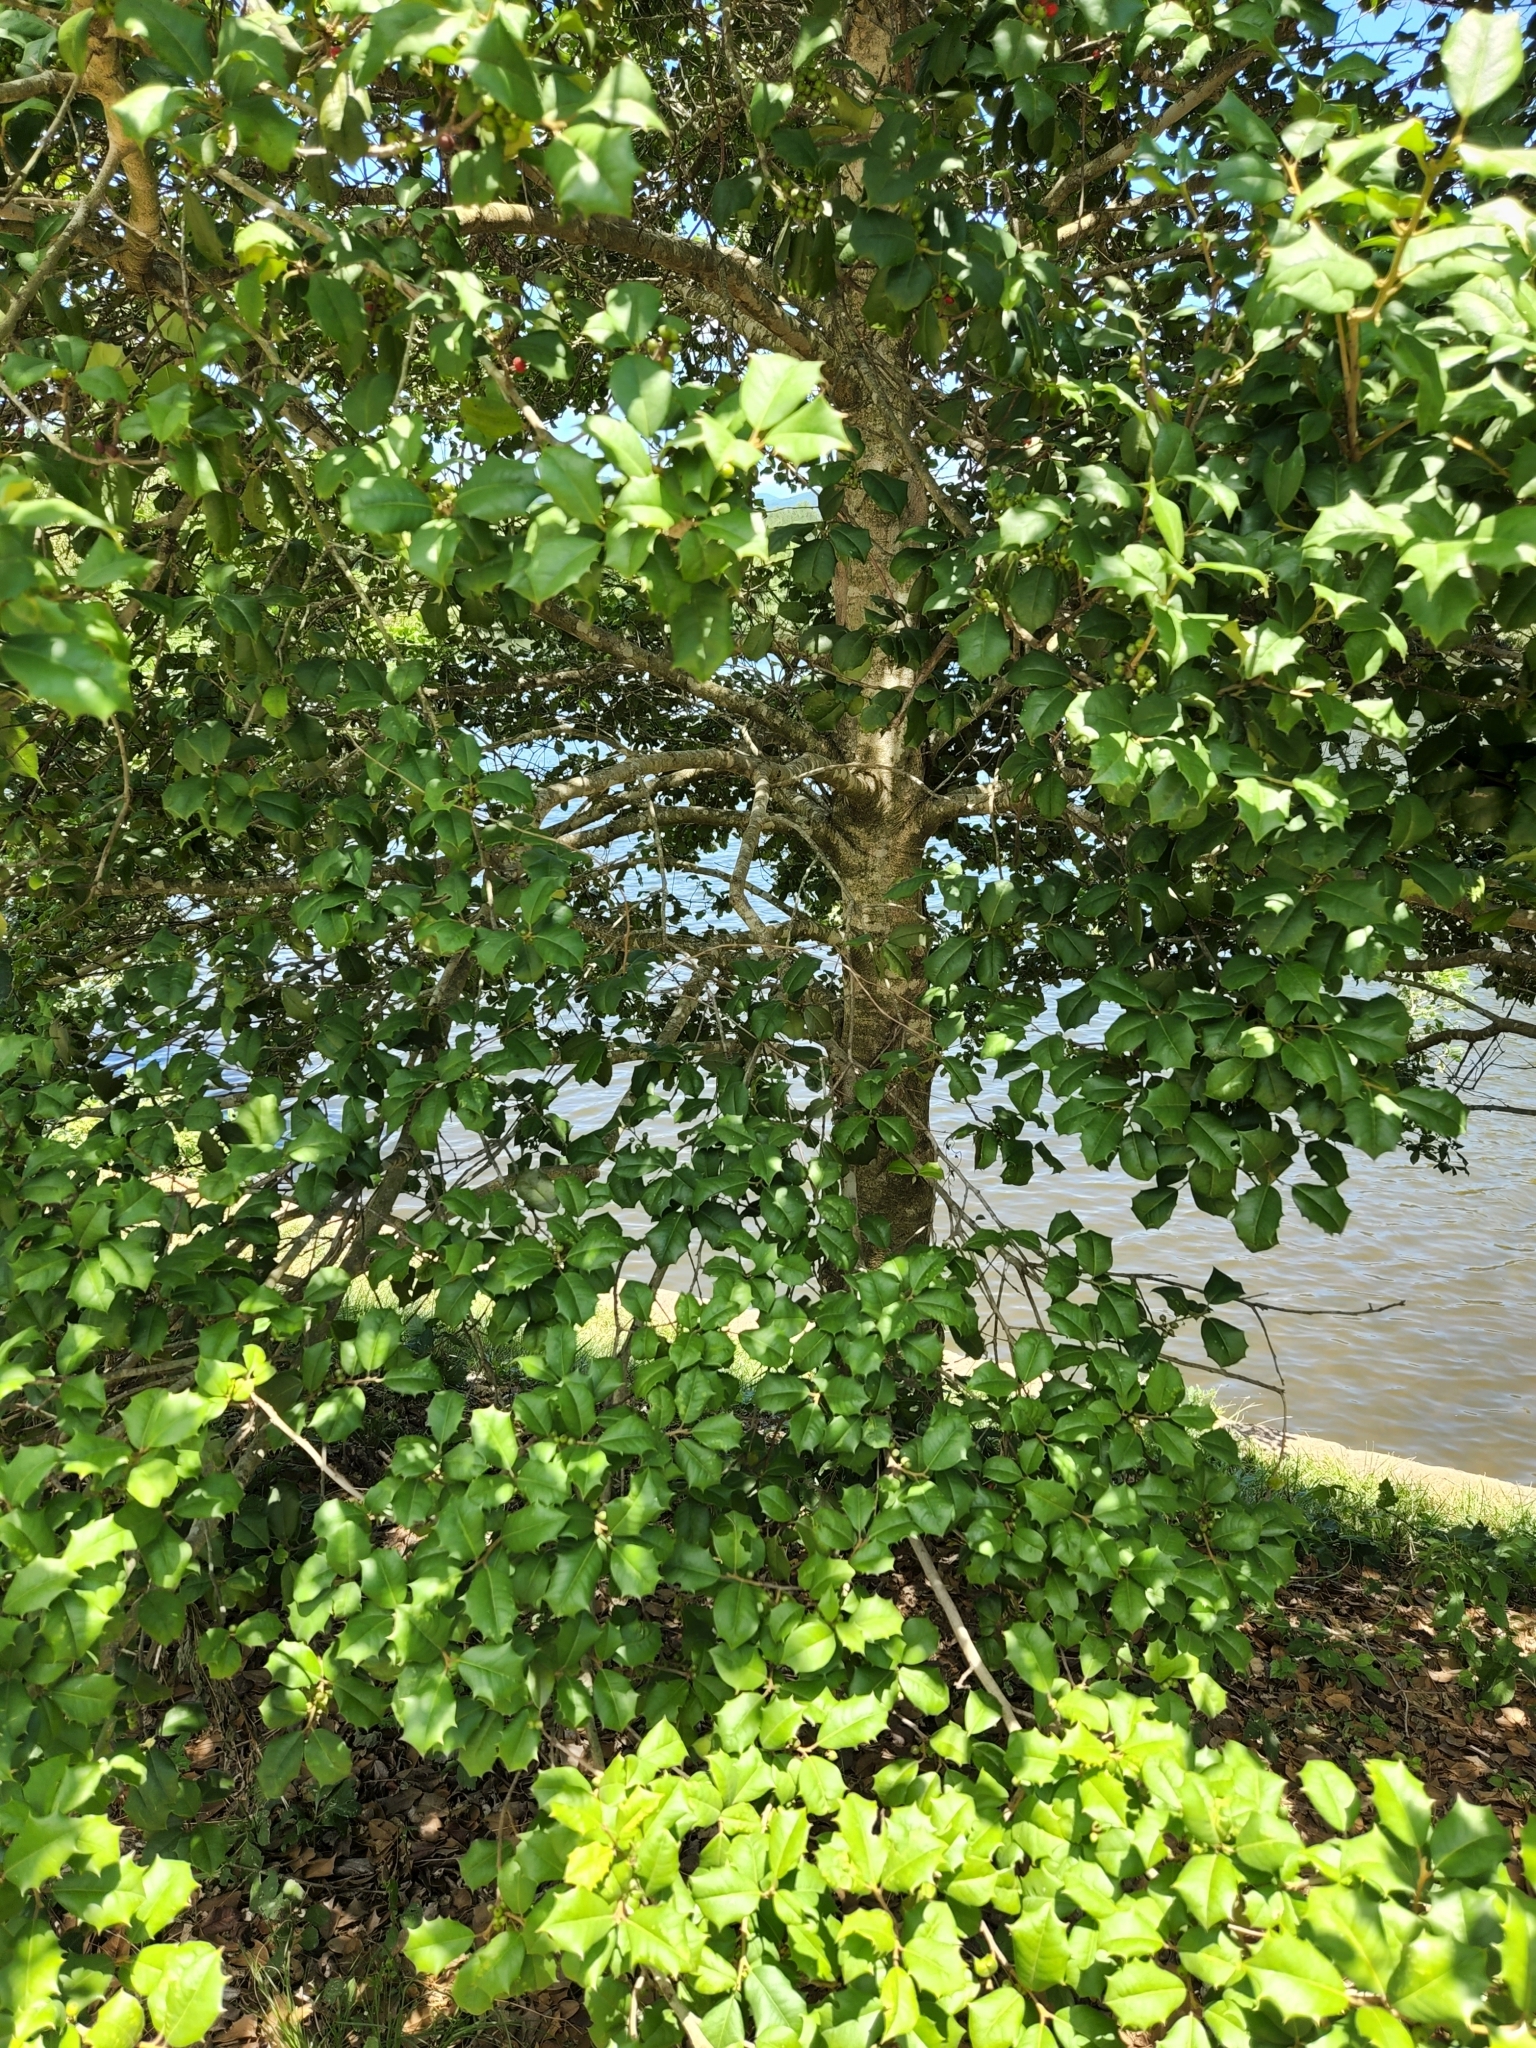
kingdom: Plantae
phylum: Tracheophyta
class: Magnoliopsida
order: Aquifoliales
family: Aquifoliaceae
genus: Ilex
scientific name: Ilex opaca
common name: American holly
